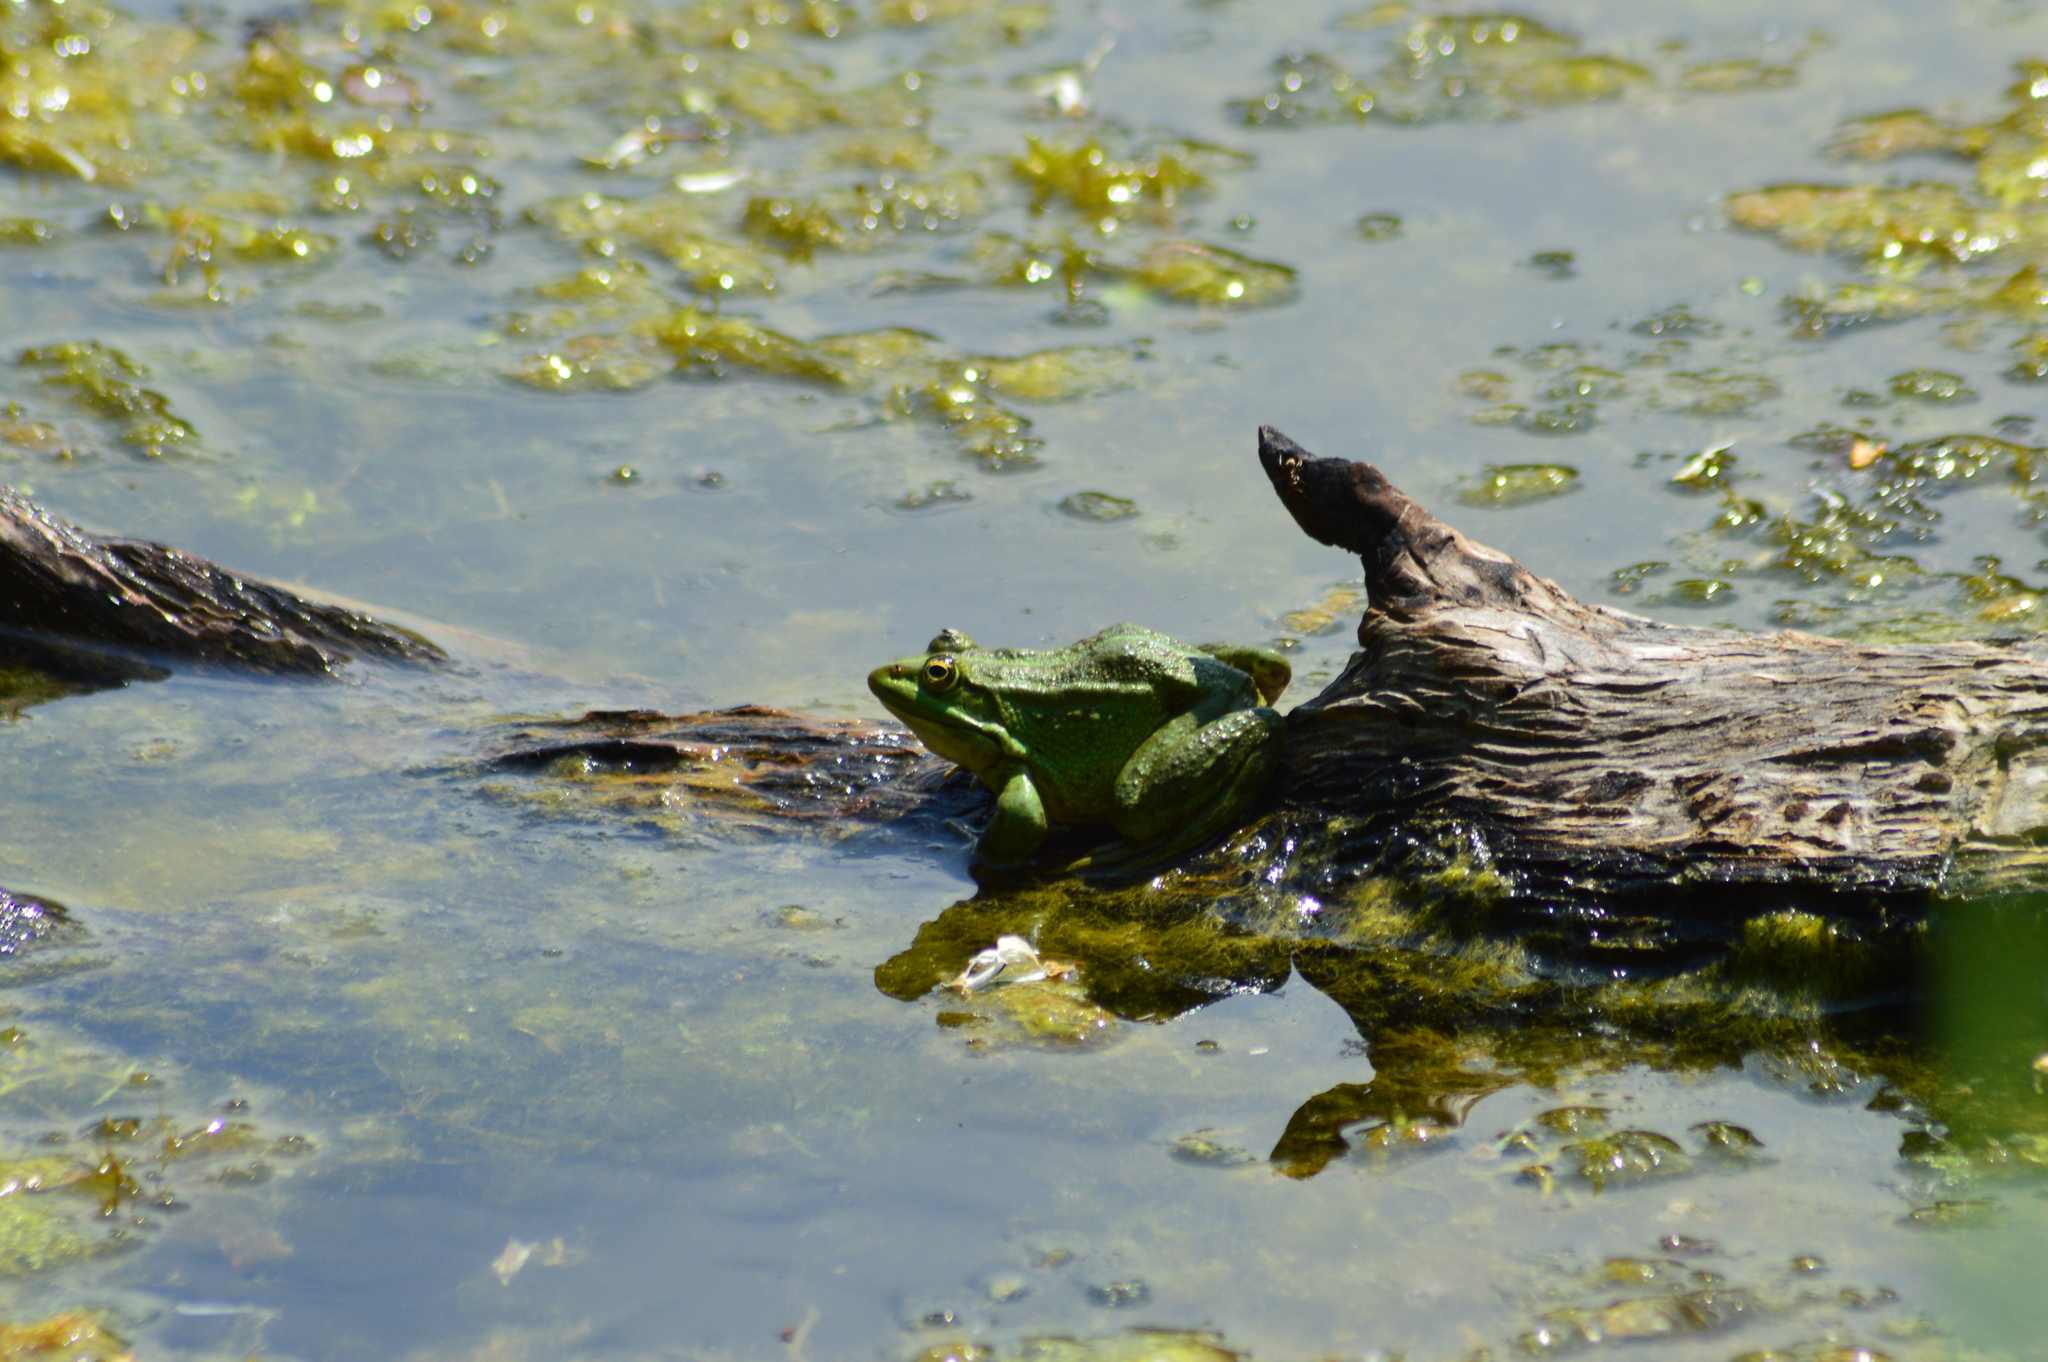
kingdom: Animalia
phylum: Chordata
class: Amphibia
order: Anura
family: Ranidae
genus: Pelophylax
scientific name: Pelophylax ridibundus
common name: Marsh frog
